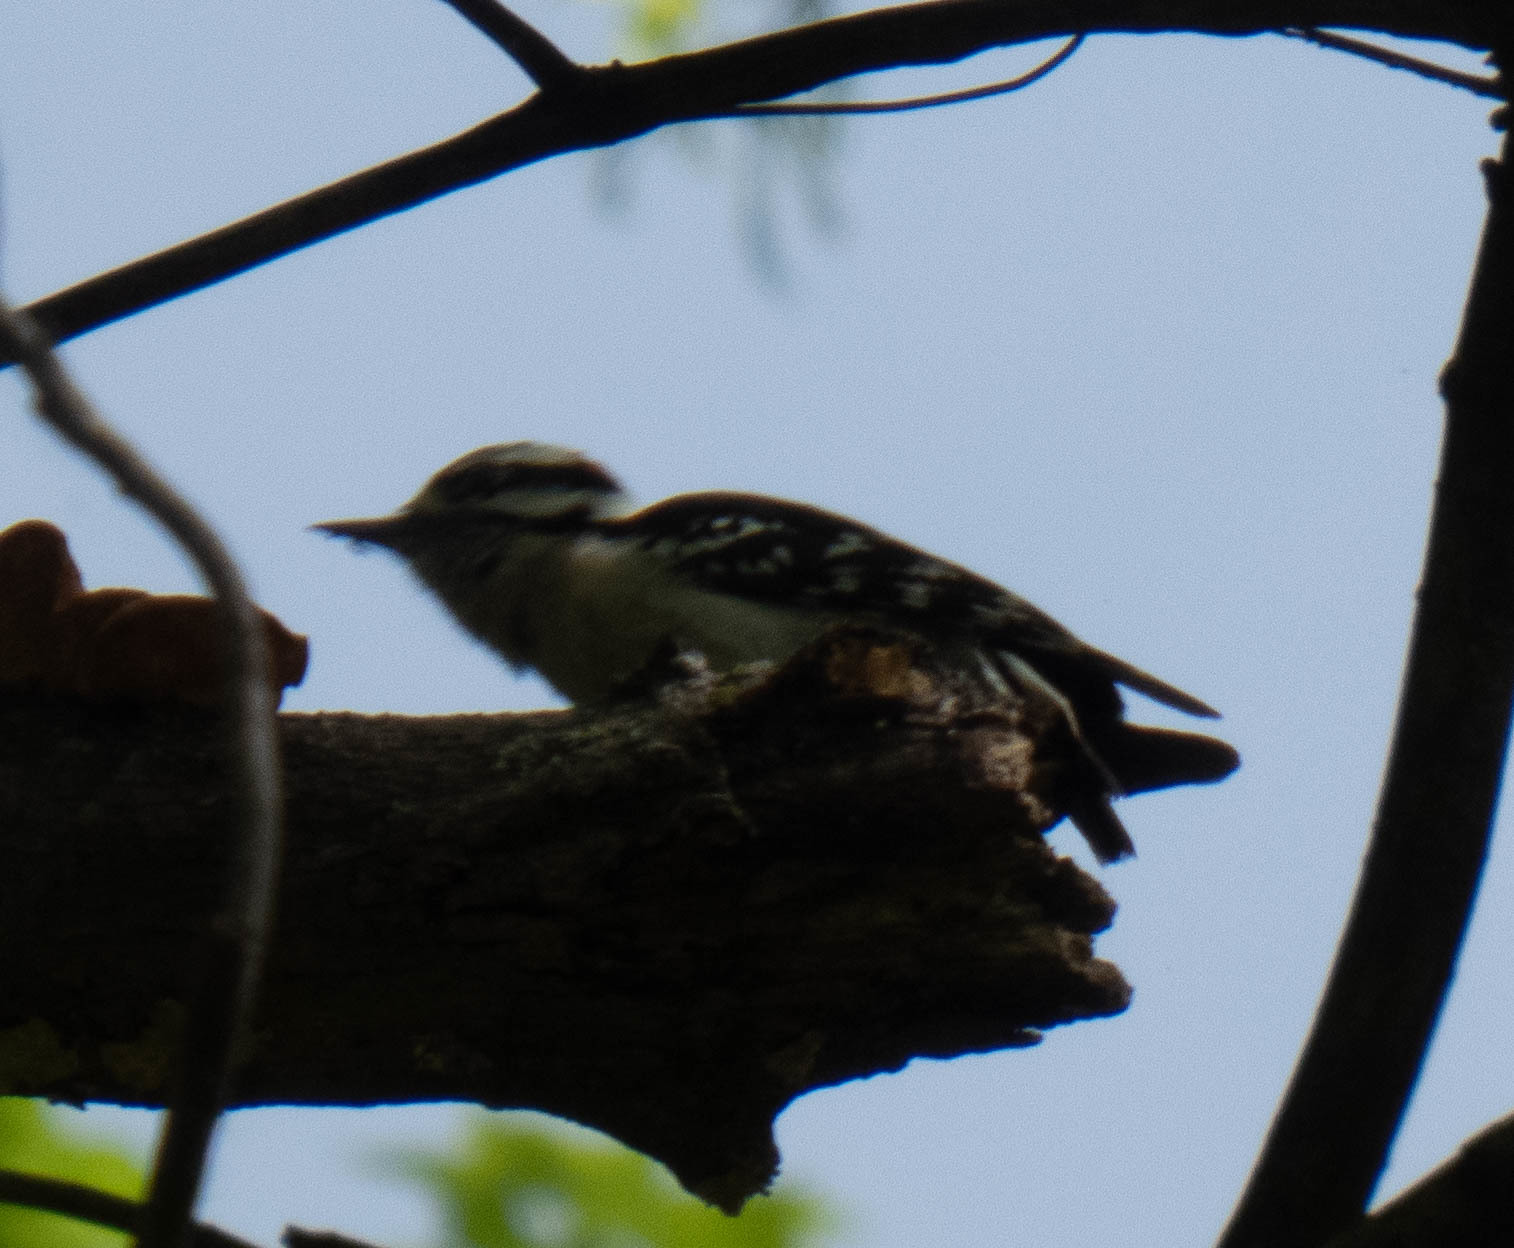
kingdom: Animalia
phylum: Chordata
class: Aves
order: Piciformes
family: Picidae
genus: Dryobates
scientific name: Dryobates pubescens
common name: Downy woodpecker
